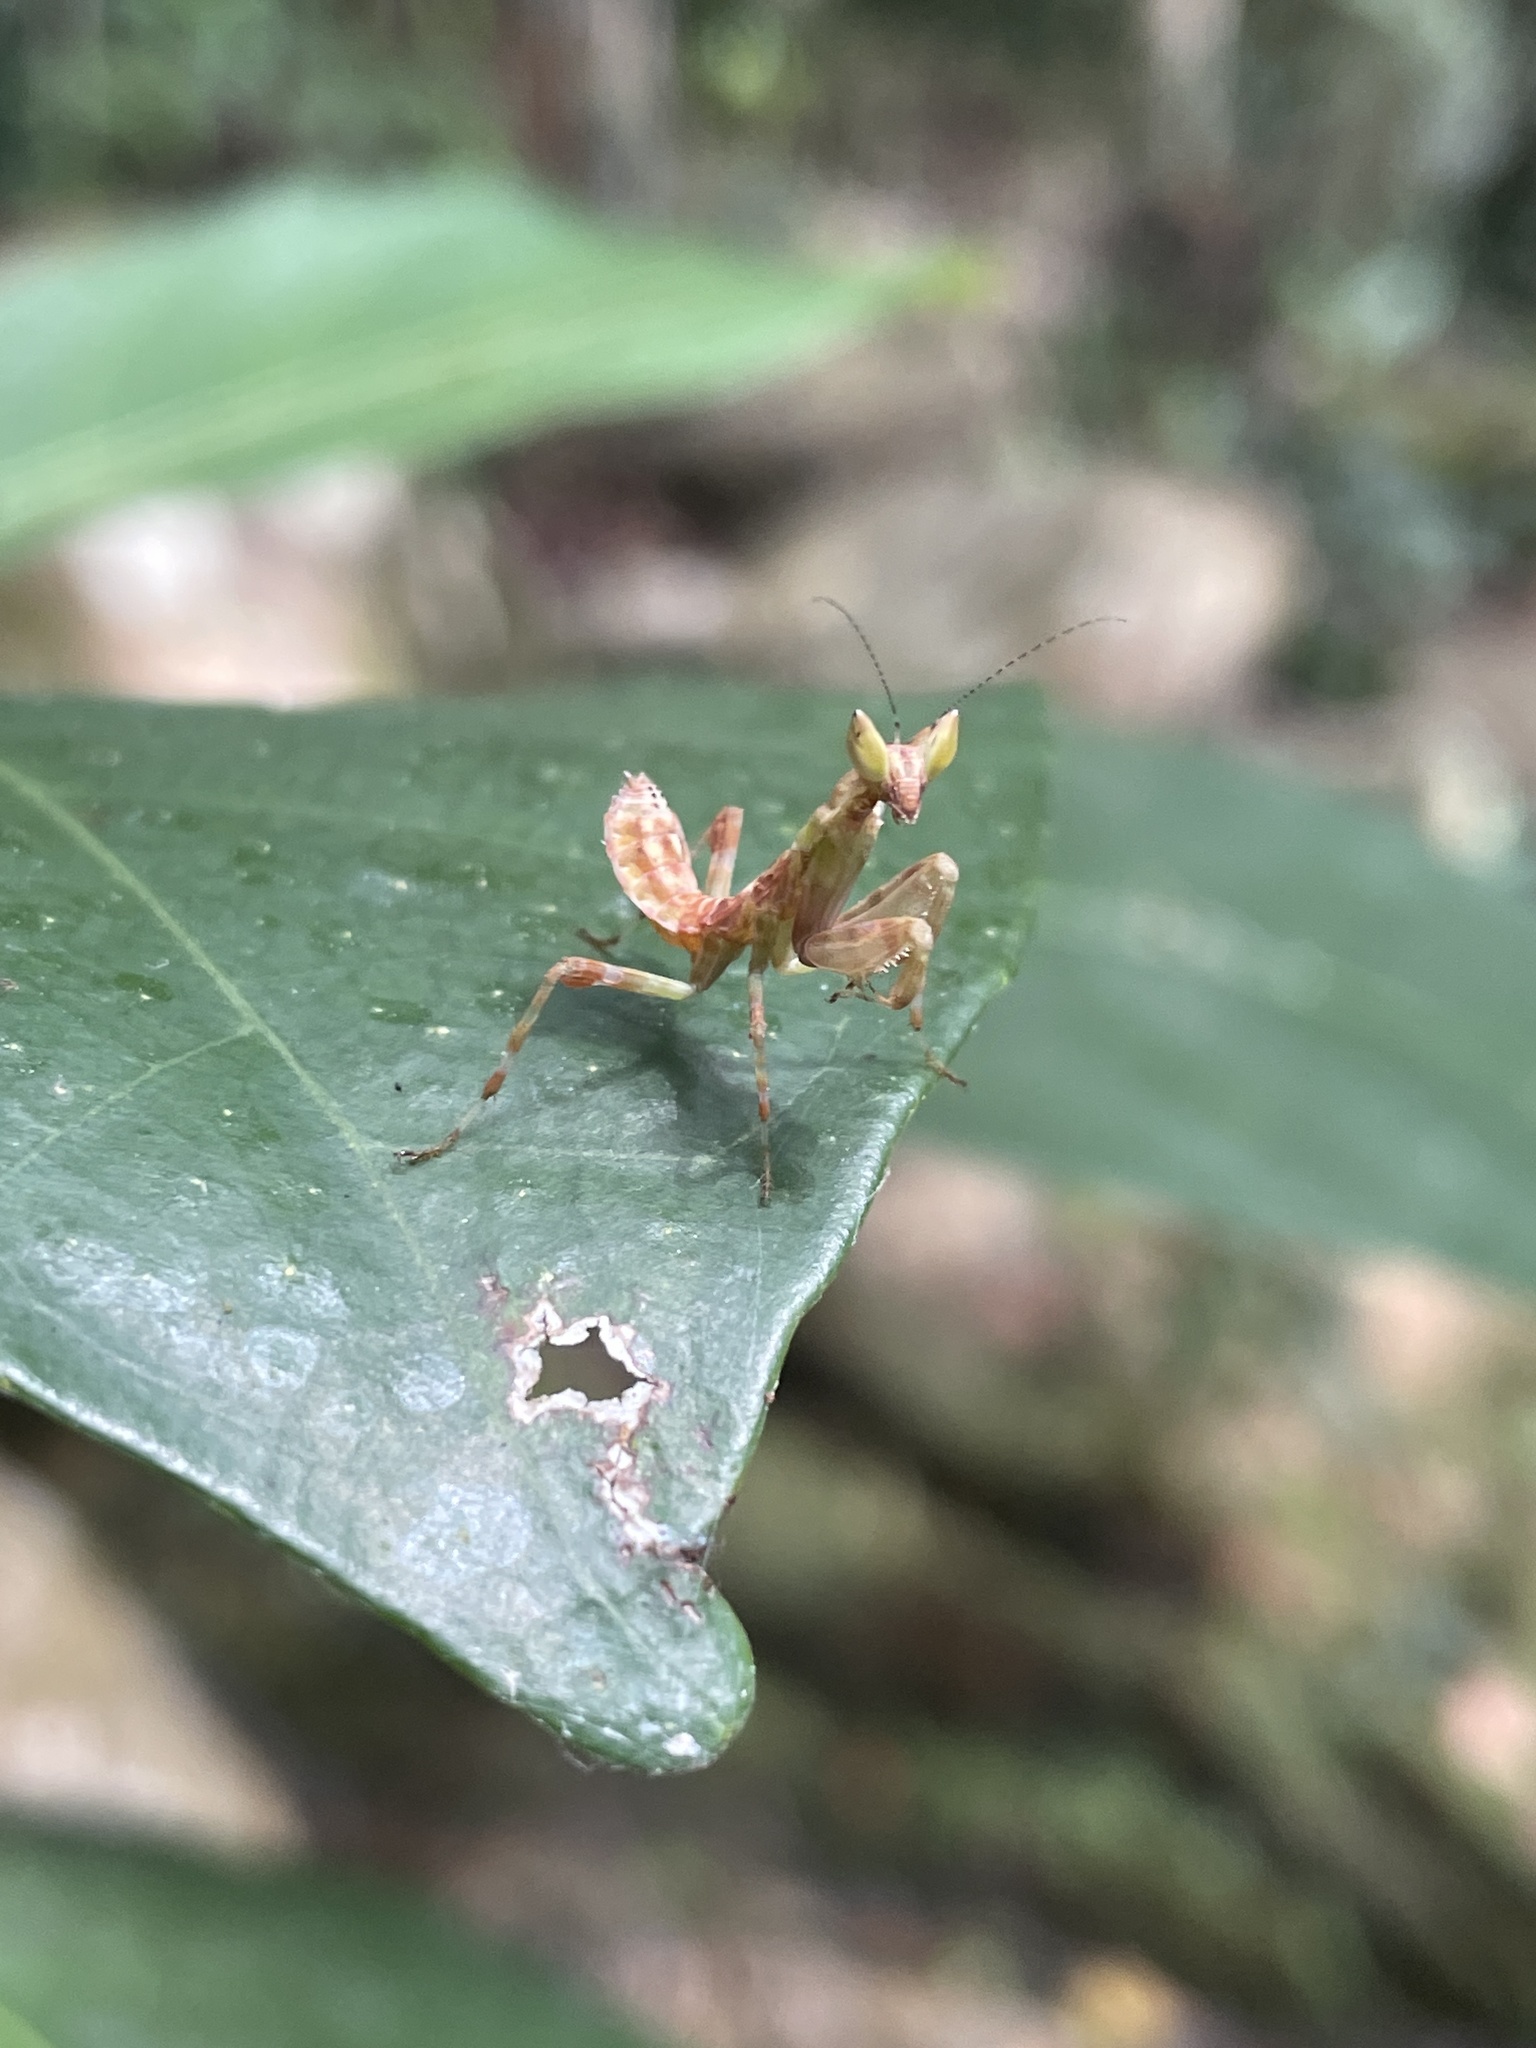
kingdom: Animalia
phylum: Arthropoda
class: Insecta
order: Mantodea
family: Hymenopodidae
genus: Creobroter
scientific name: Creobroter gemmatus
